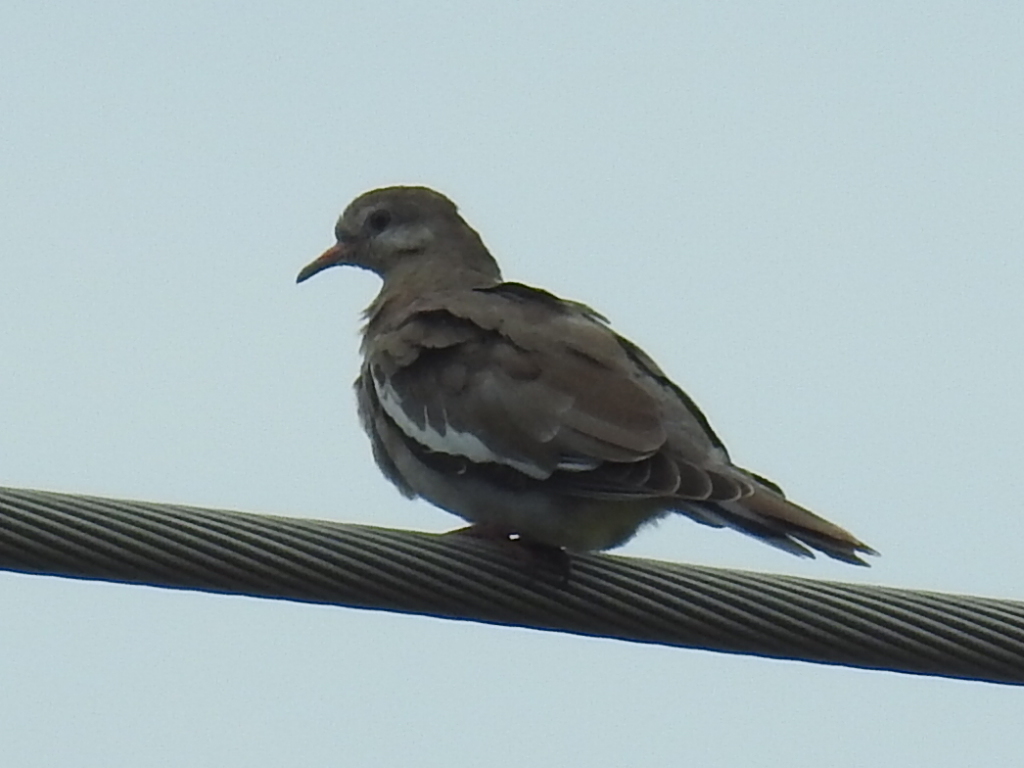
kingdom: Animalia
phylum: Chordata
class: Aves
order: Columbiformes
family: Columbidae
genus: Zenaida
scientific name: Zenaida asiatica
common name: White-winged dove
